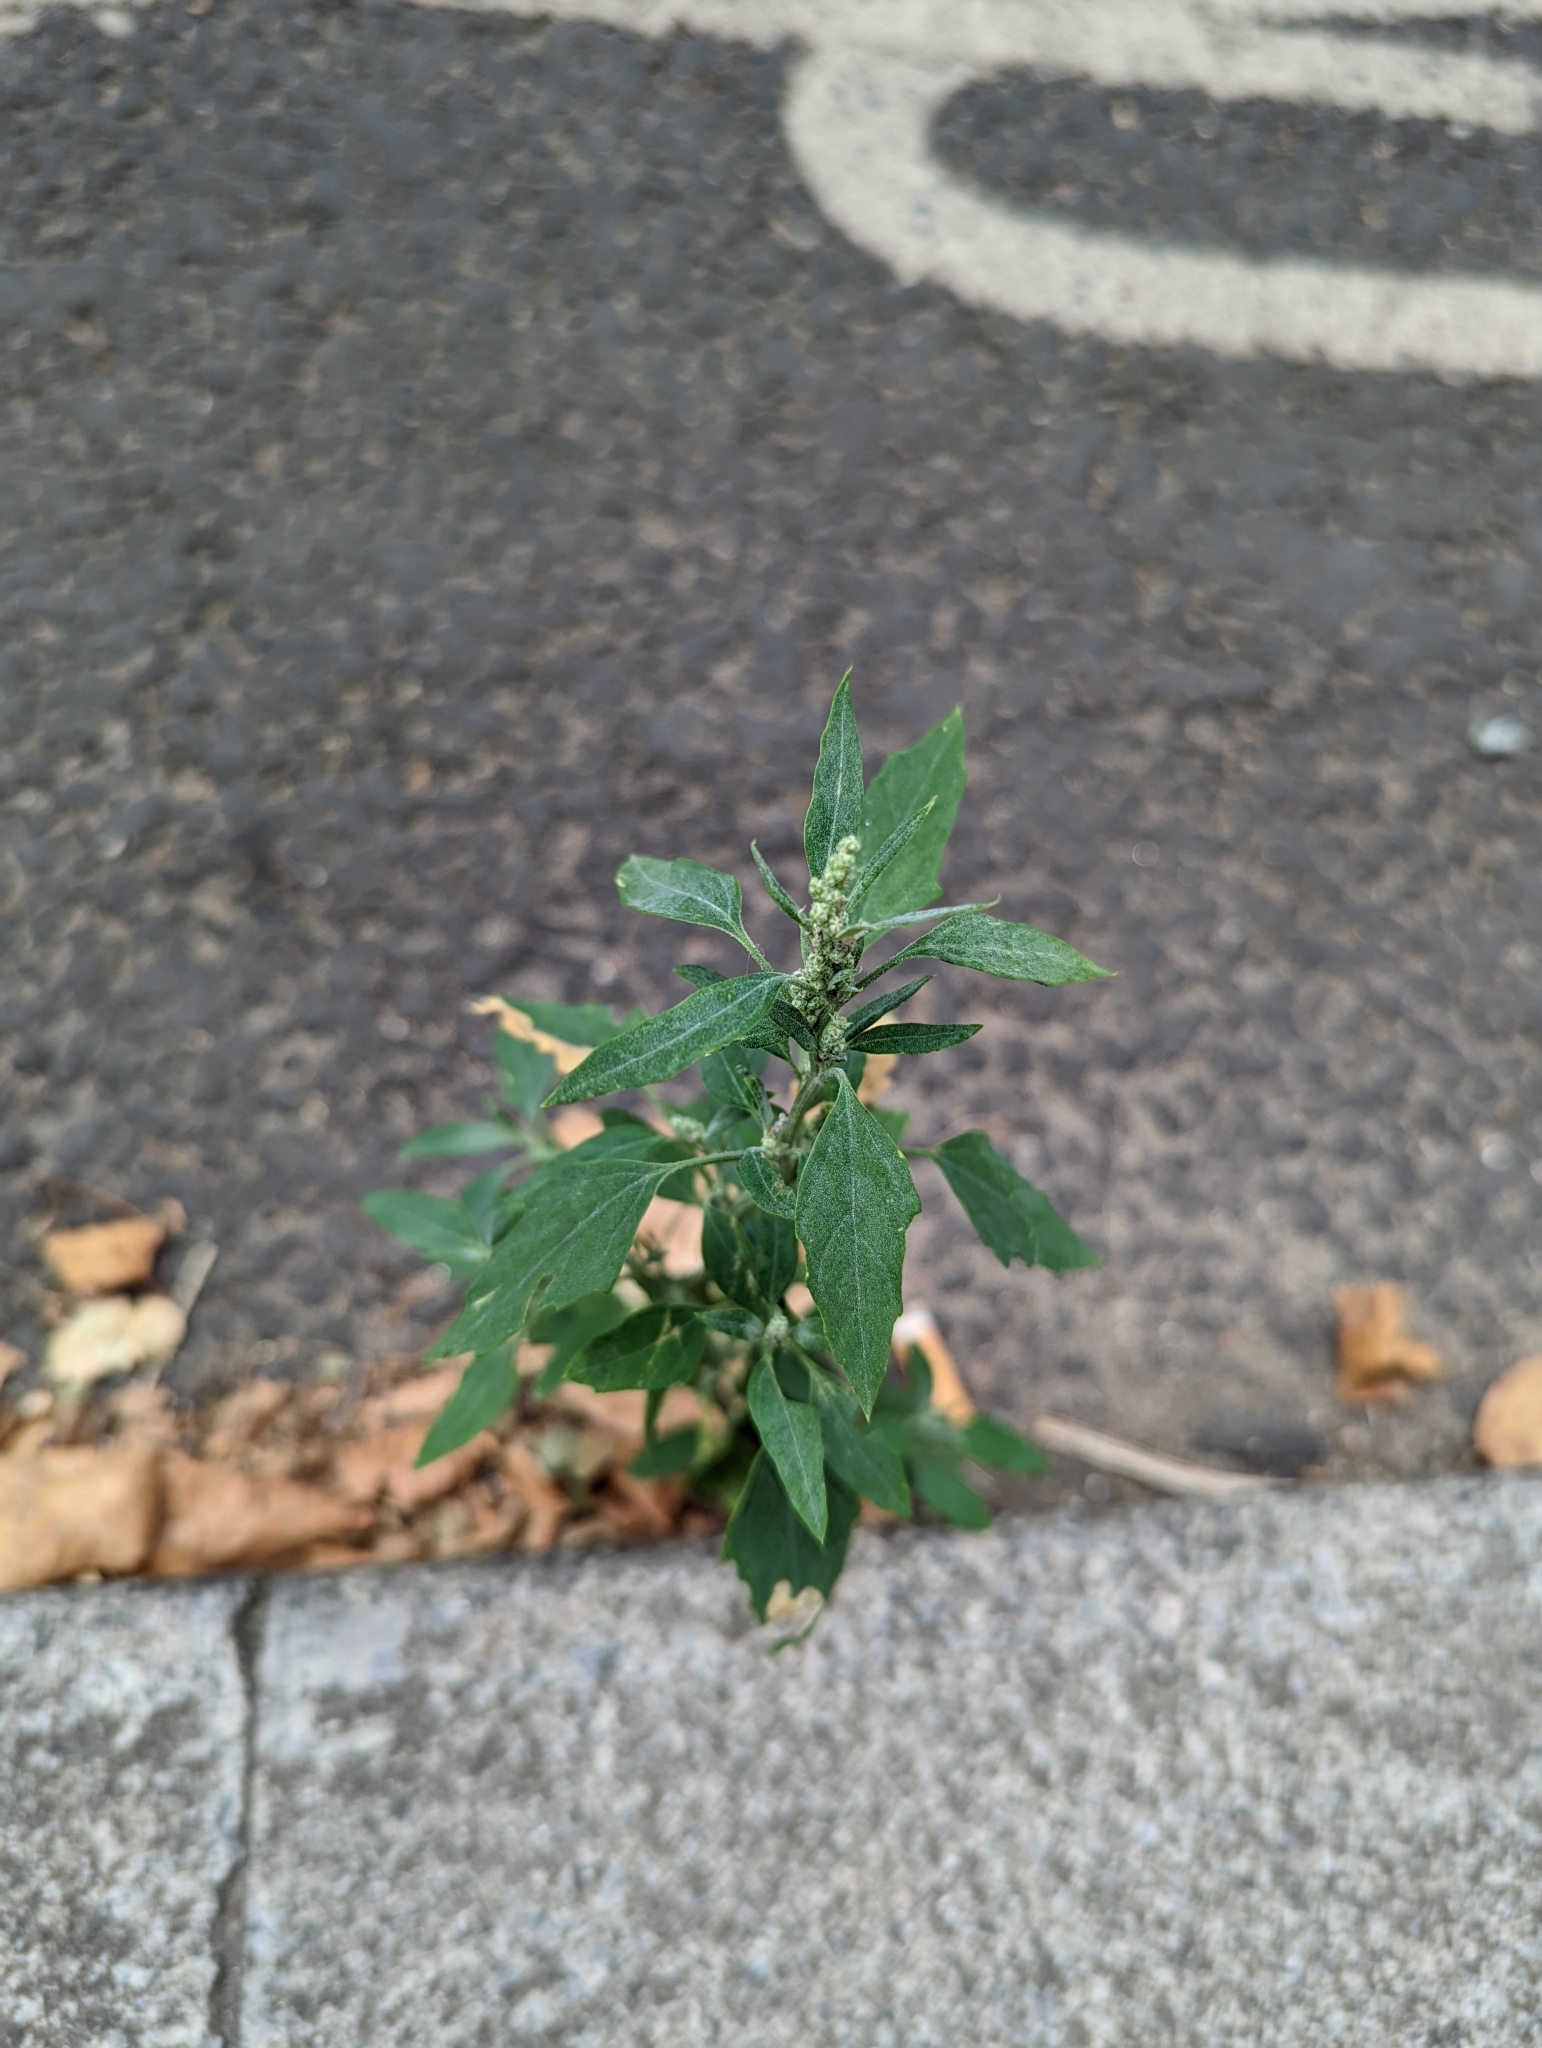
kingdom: Plantae
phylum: Tracheophyta
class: Magnoliopsida
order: Caryophyllales
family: Amaranthaceae
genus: Chenopodium
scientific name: Chenopodium album
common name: Fat-hen
